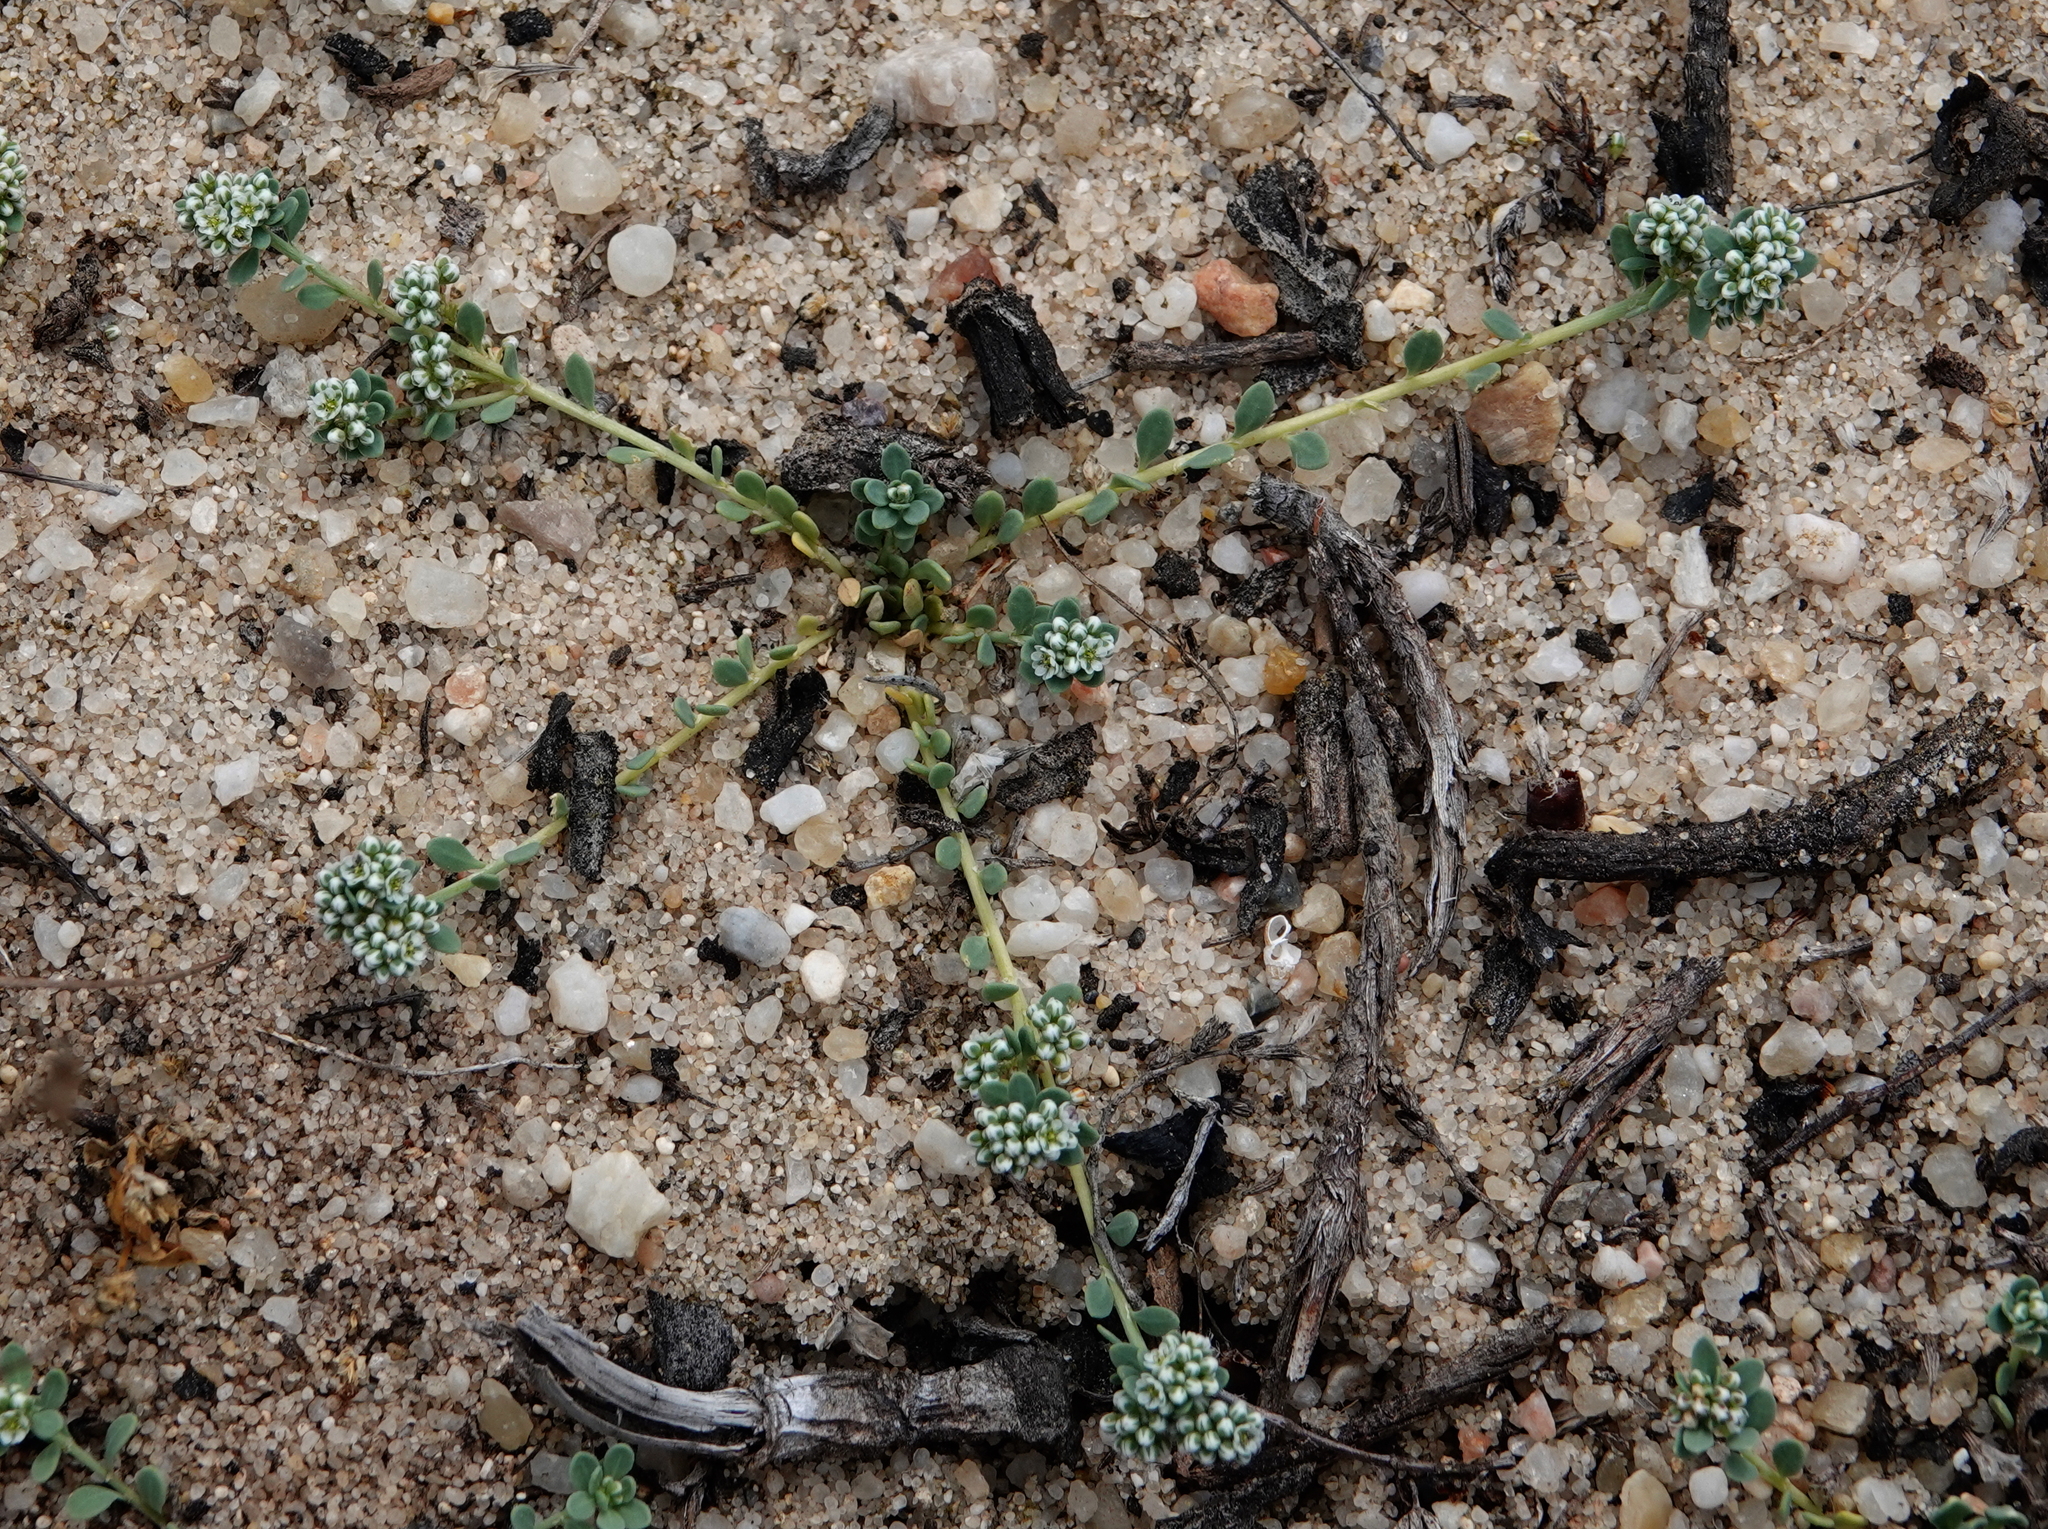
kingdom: Plantae
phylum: Tracheophyta
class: Magnoliopsida
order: Caryophyllales
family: Caryophyllaceae
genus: Corrigiola
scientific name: Corrigiola litoralis
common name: Strapwort
